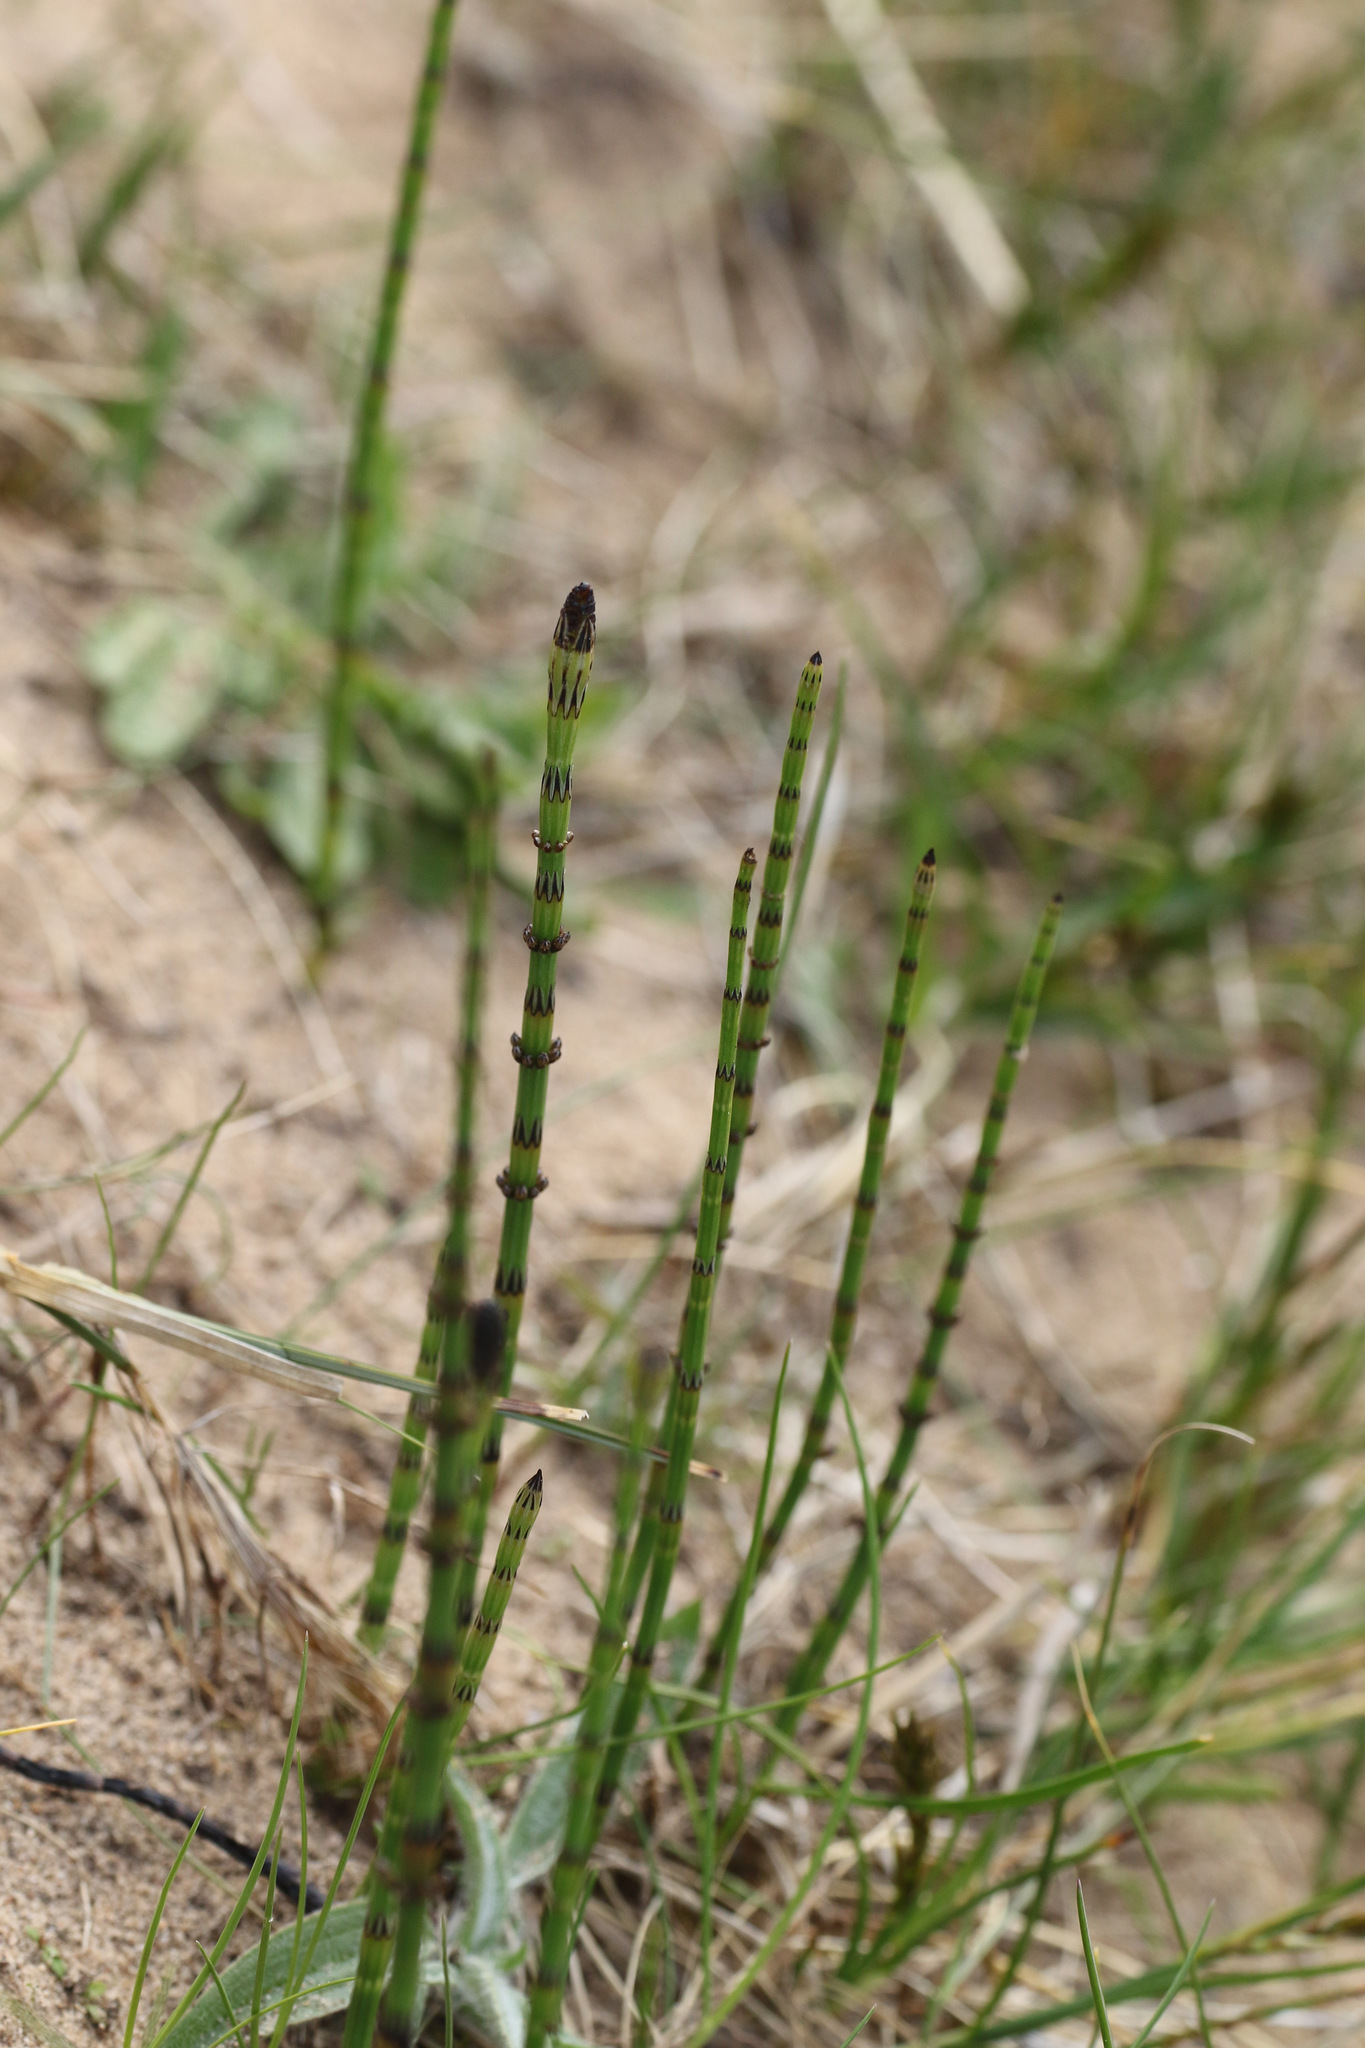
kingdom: Plantae
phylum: Tracheophyta
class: Polypodiopsida
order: Equisetales
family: Equisetaceae
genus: Equisetum
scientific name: Equisetum palustre
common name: Marsh horsetail
